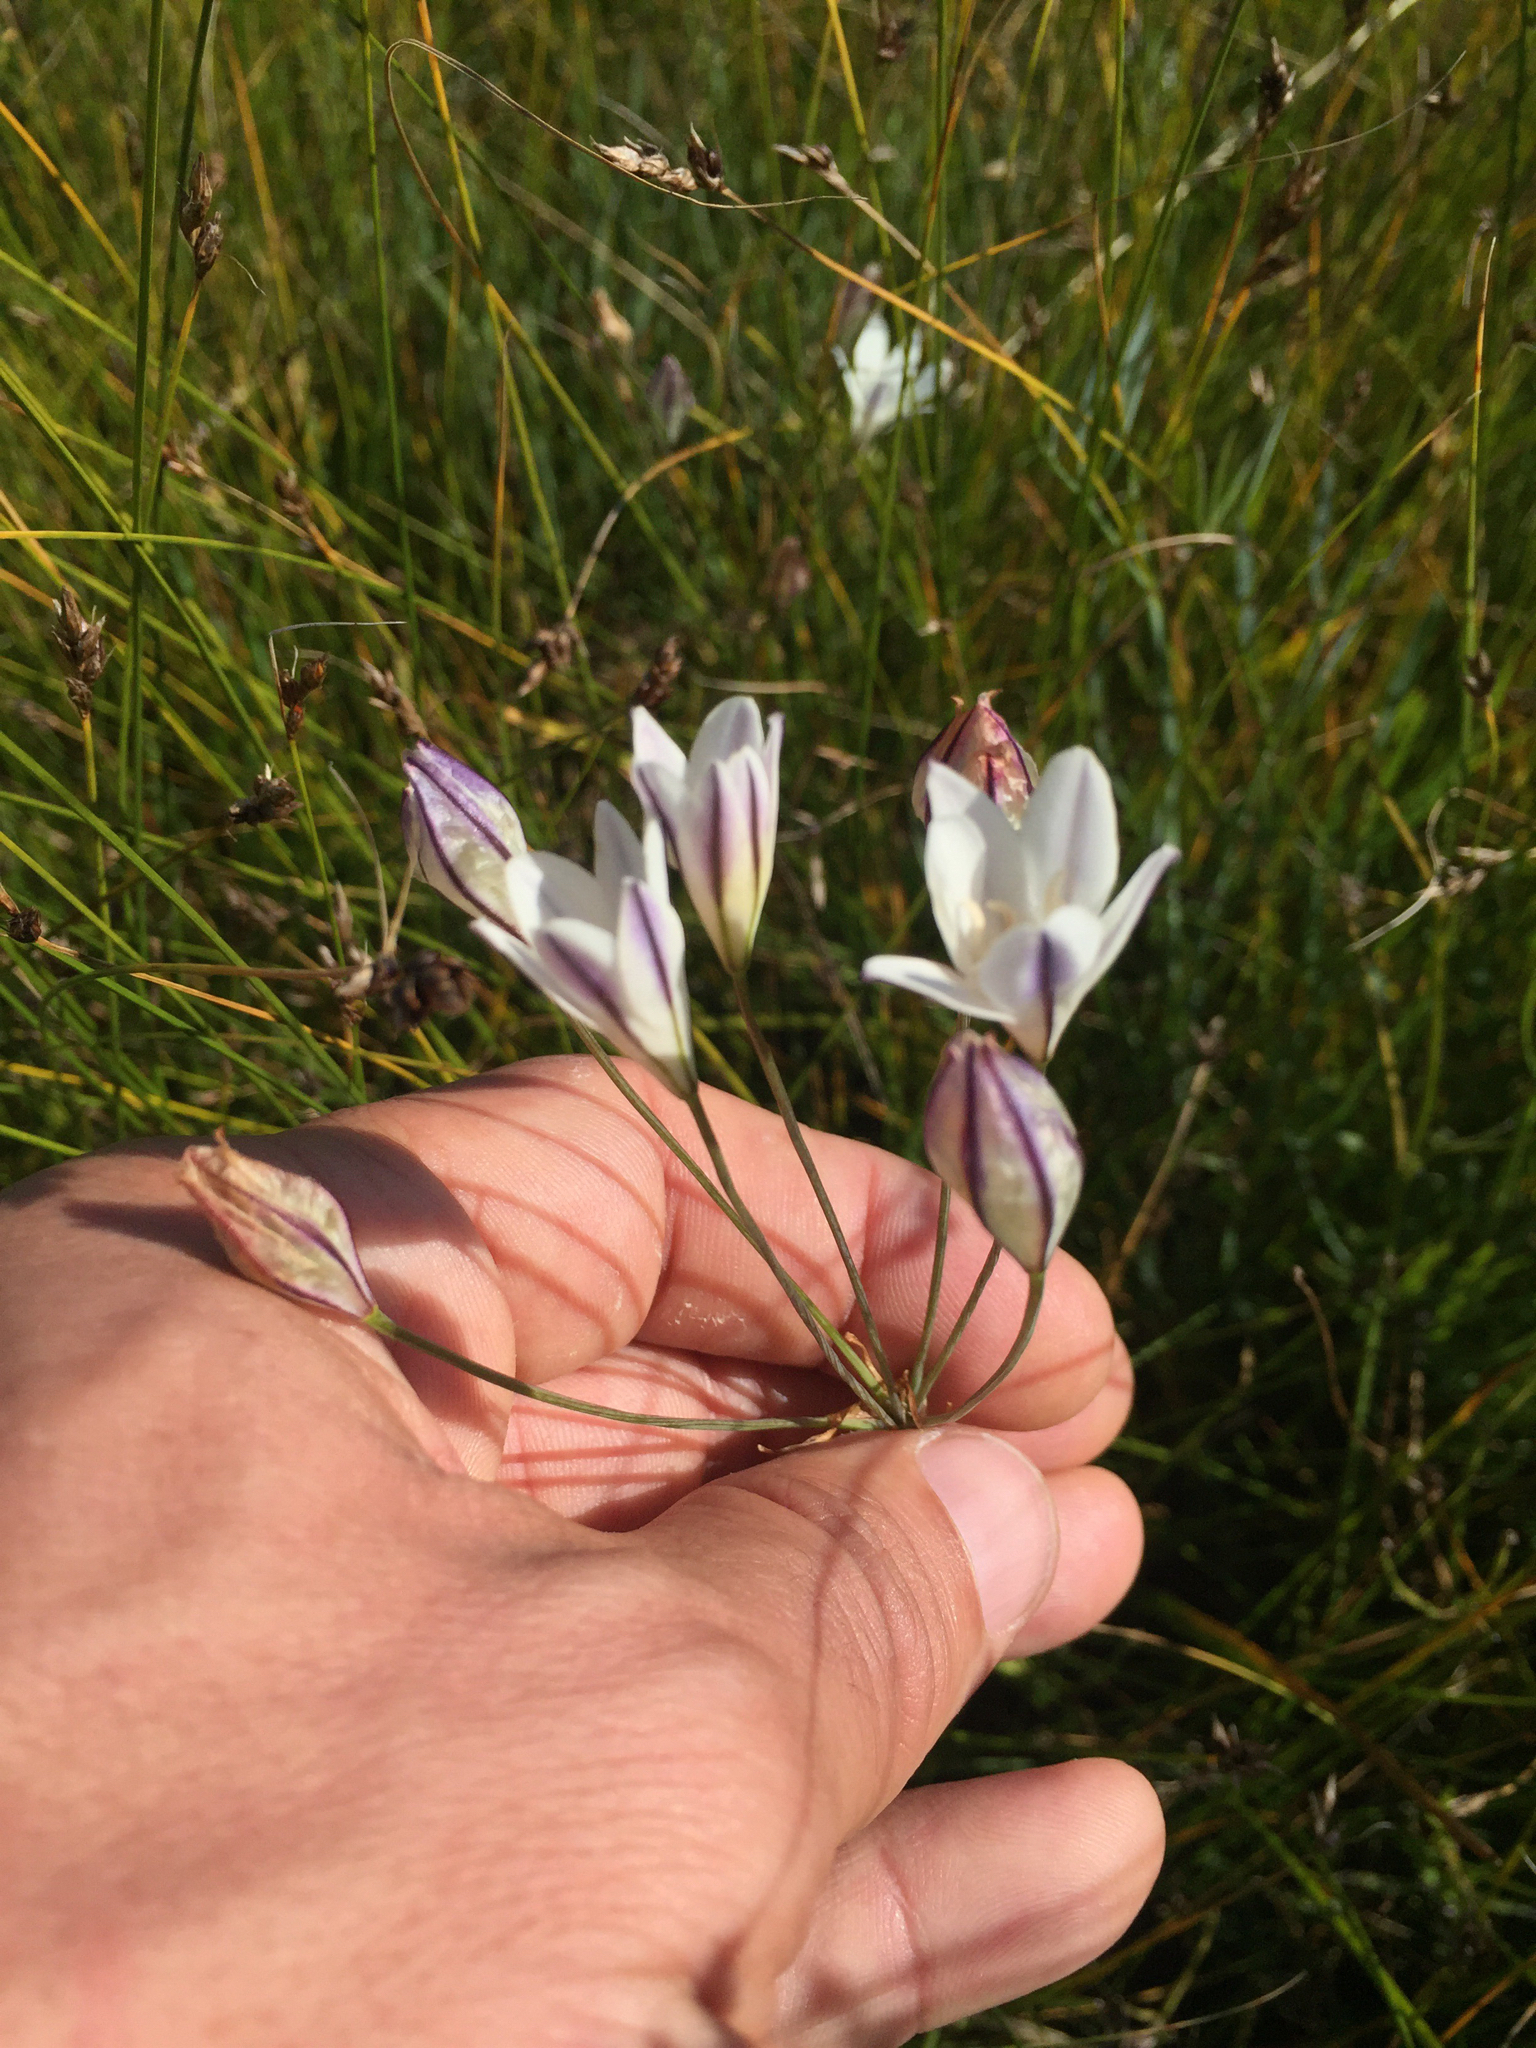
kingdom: Plantae
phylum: Tracheophyta
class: Liliopsida
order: Asparagales
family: Asparagaceae
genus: Triteleia
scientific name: Triteleia peduncularis
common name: Long-ray brodiaea
